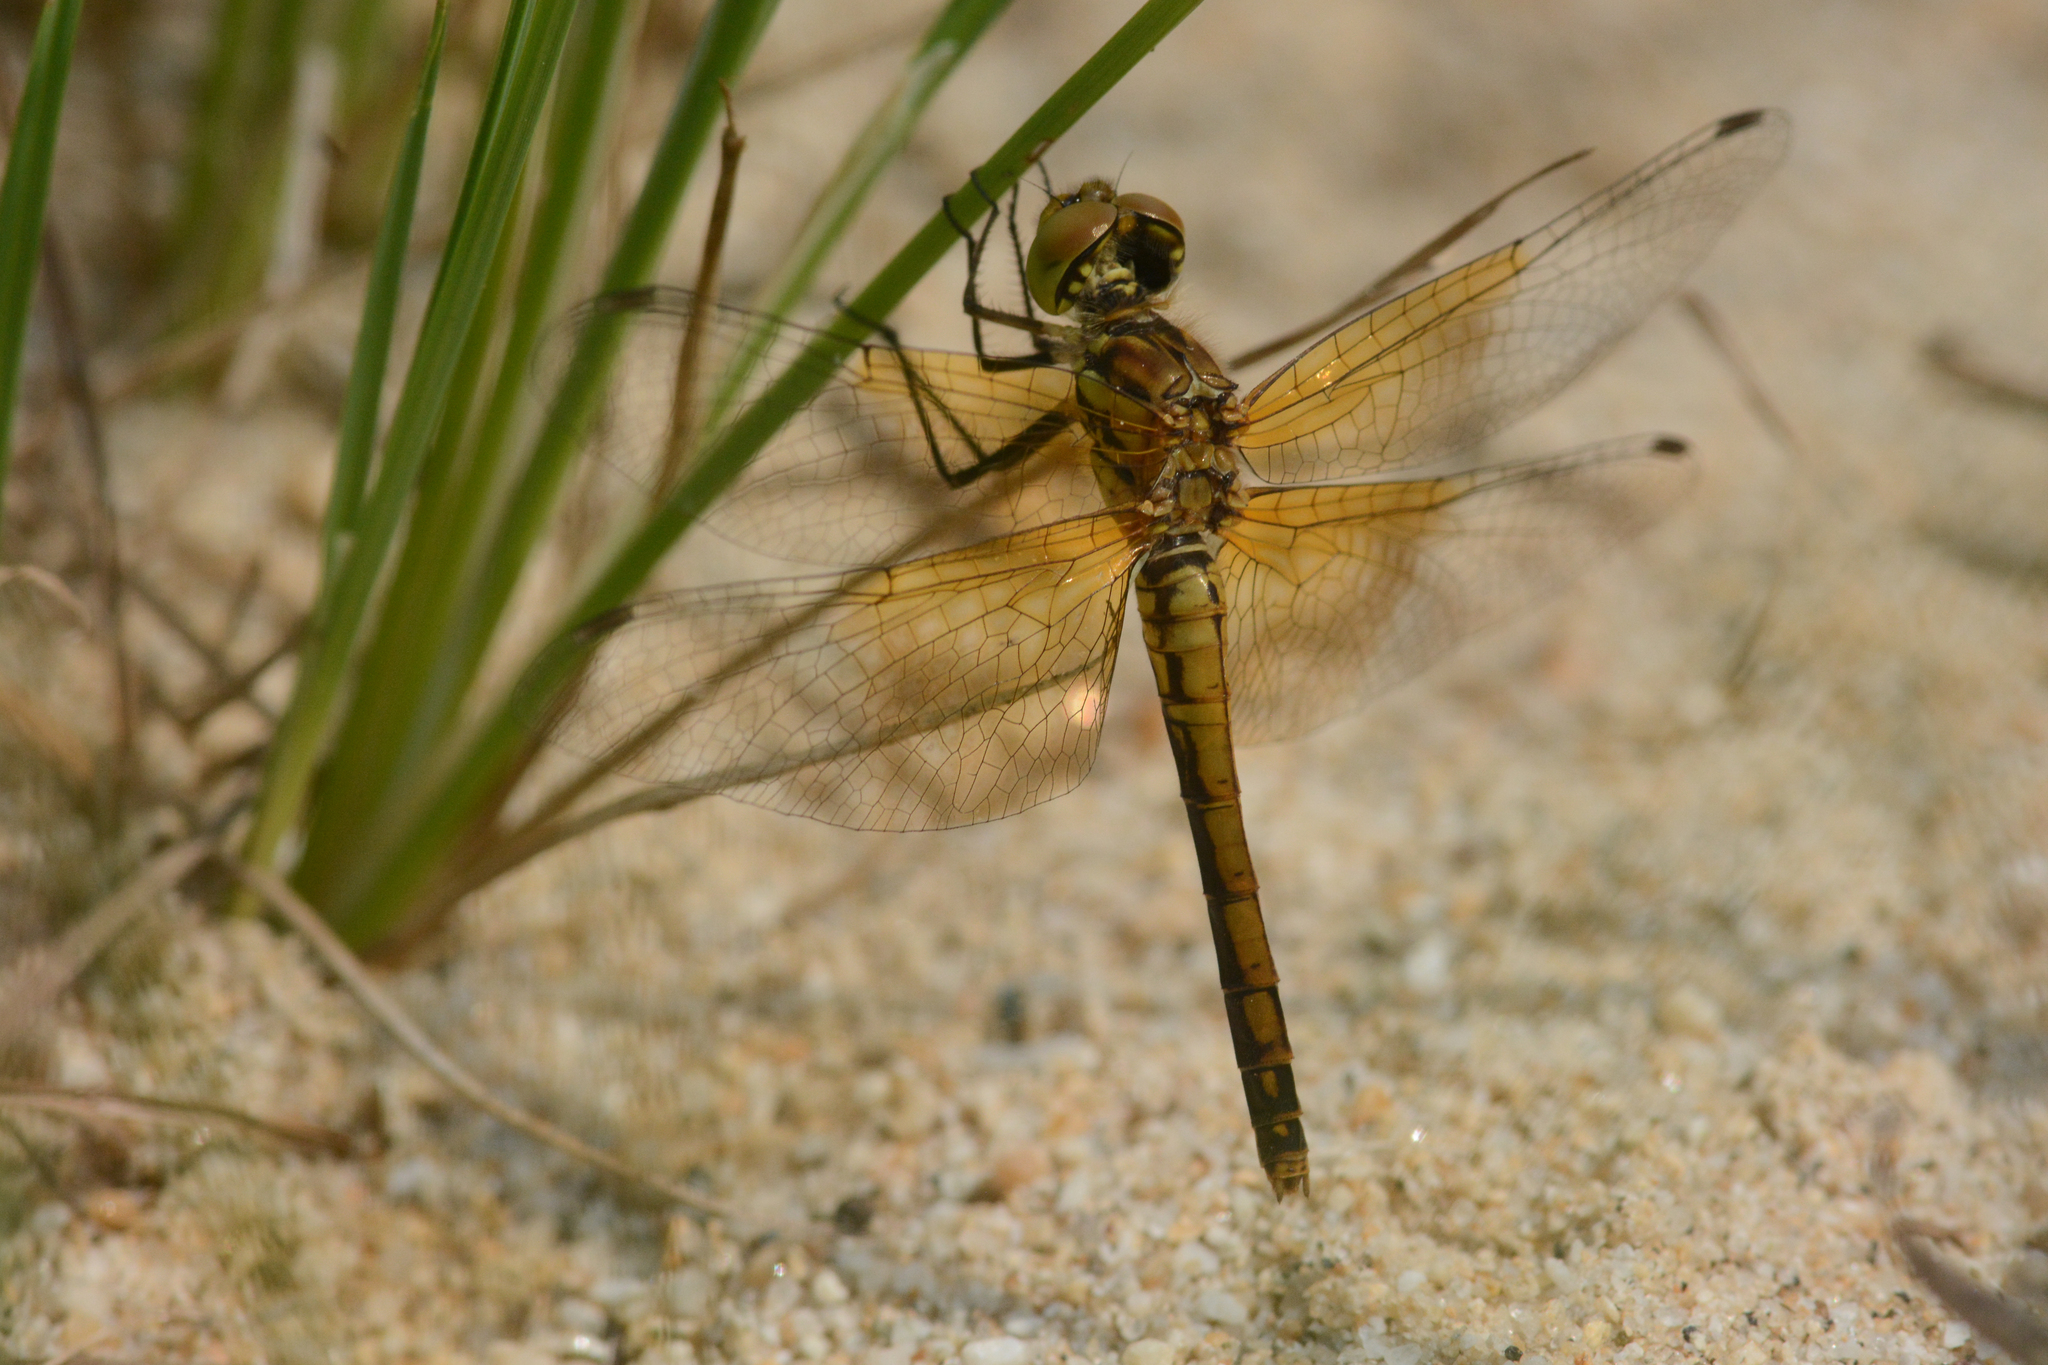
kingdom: Animalia
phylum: Arthropoda
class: Insecta
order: Odonata
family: Libellulidae
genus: Sympetrum
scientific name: Sympetrum semicinctum
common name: Band-winged meadowhawk
